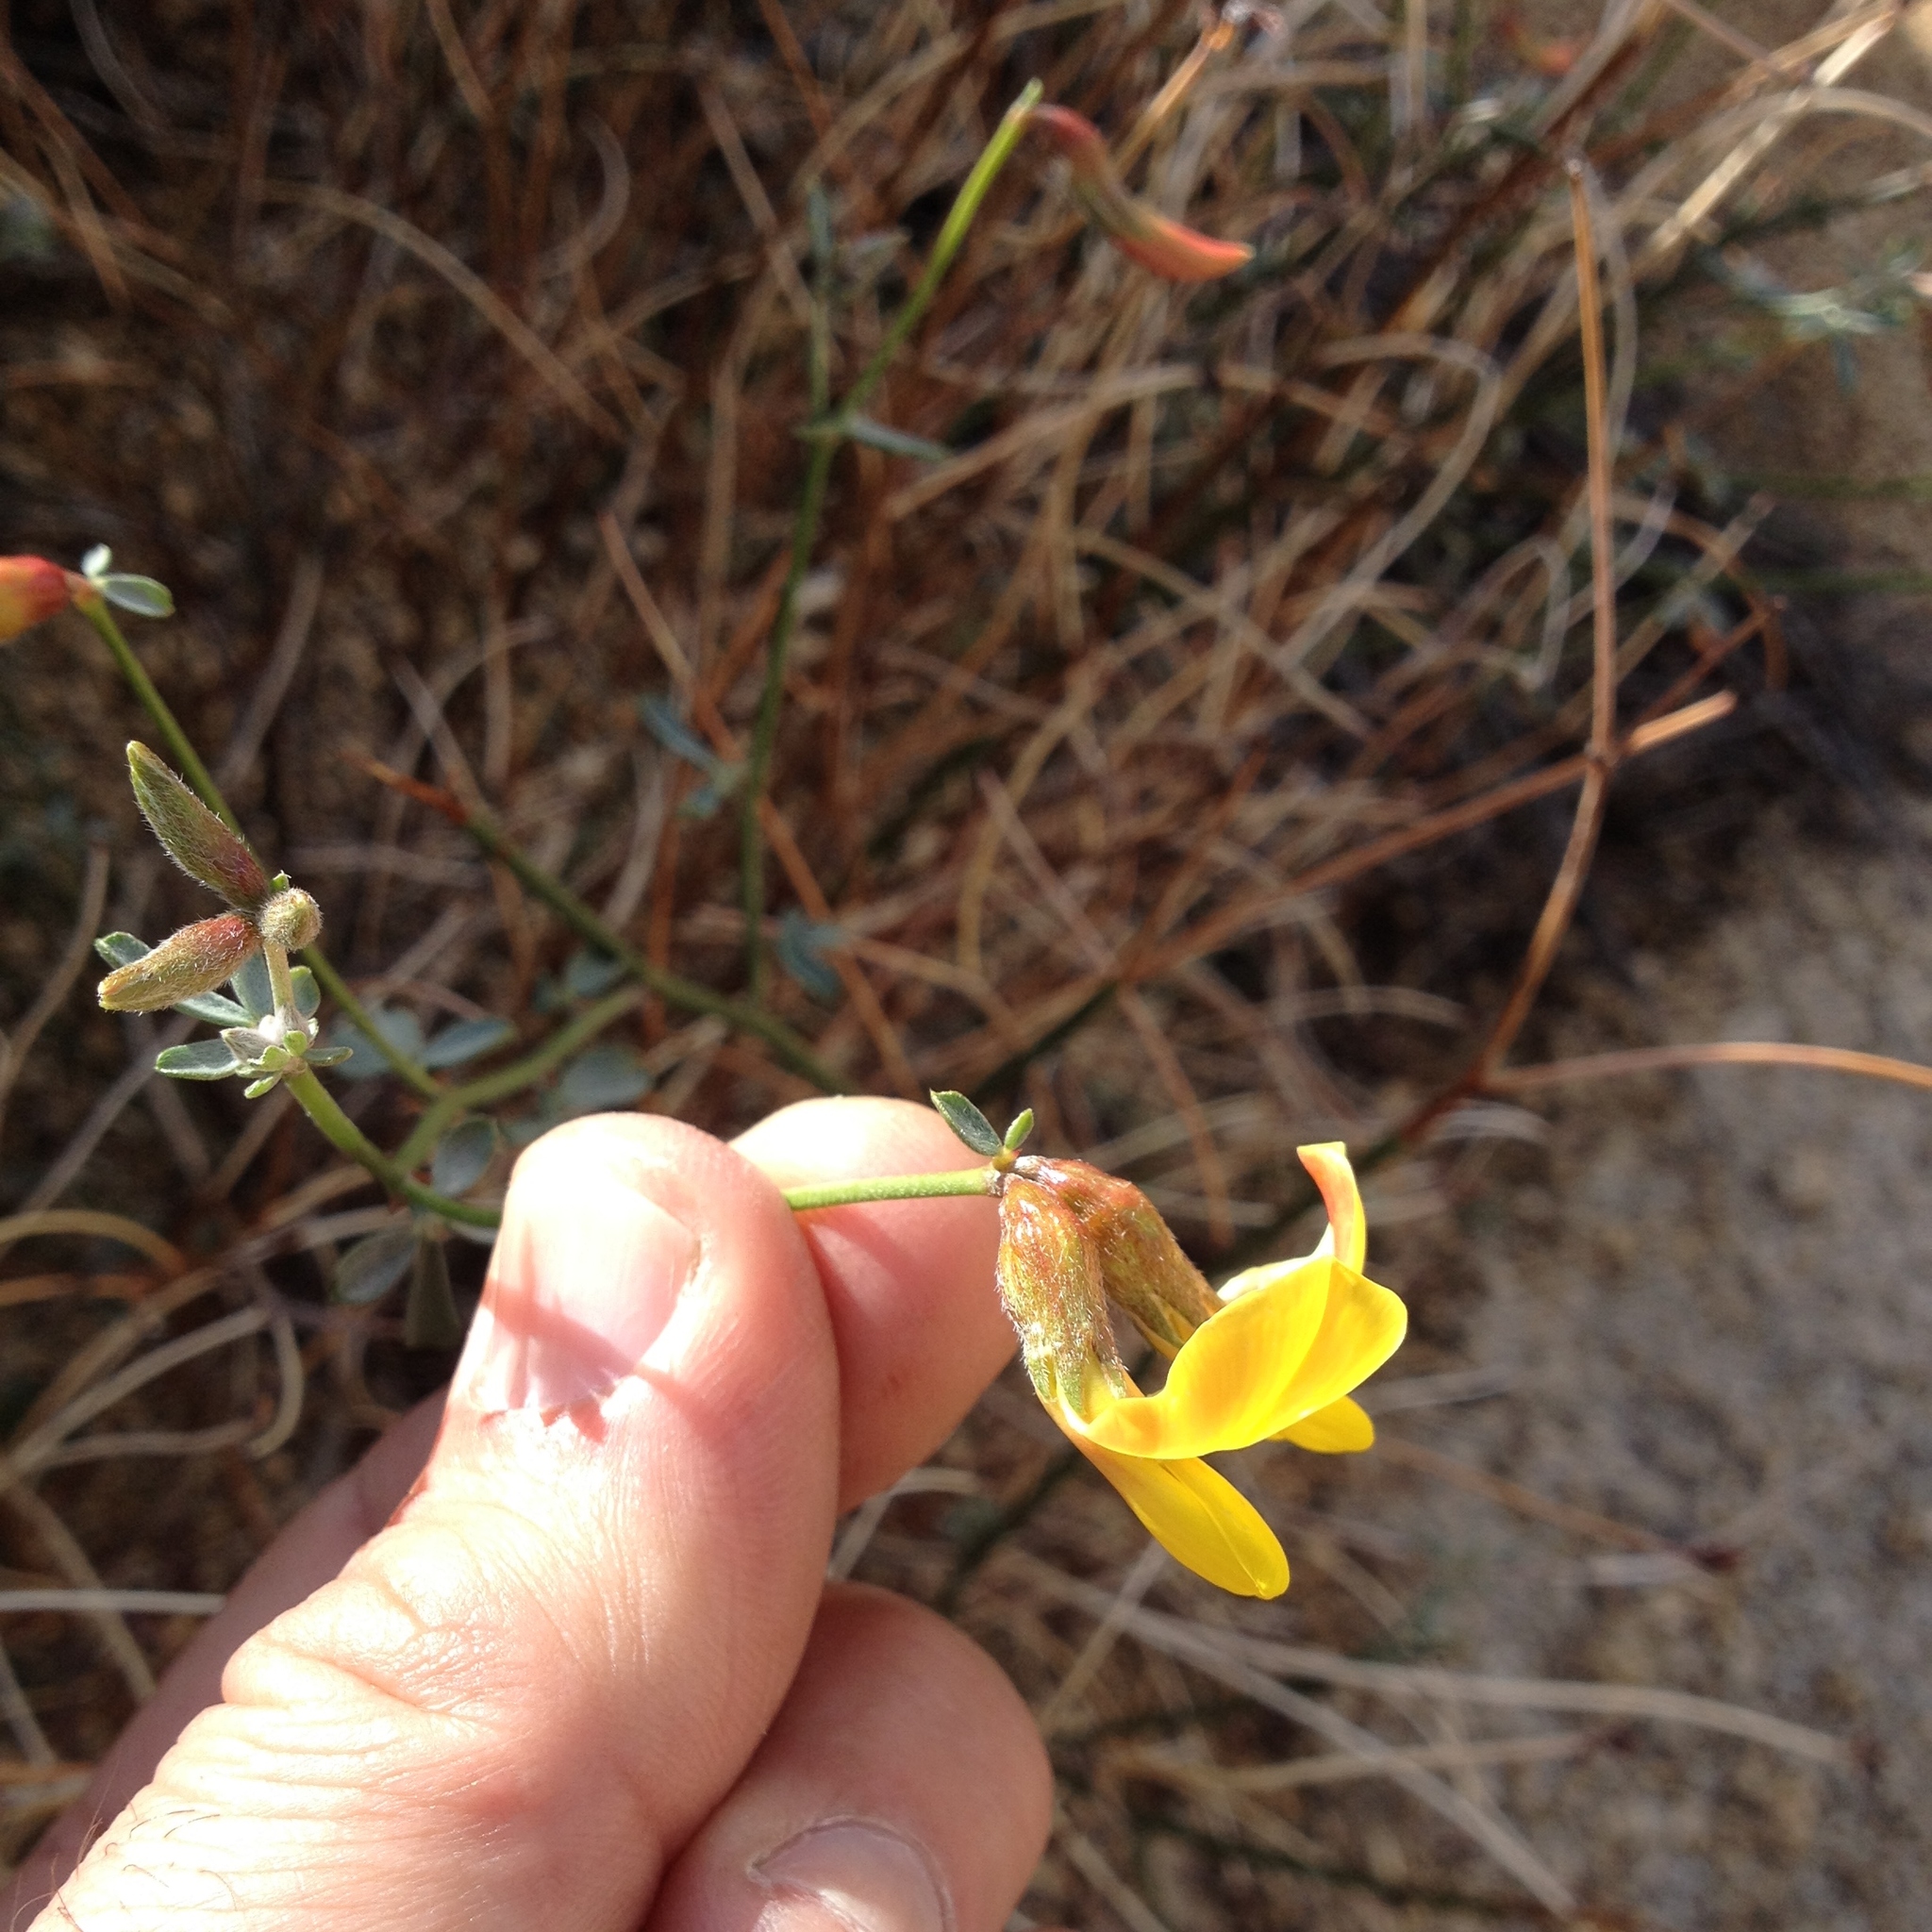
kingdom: Plantae
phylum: Tracheophyta
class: Magnoliopsida
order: Fabales
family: Fabaceae
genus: Acmispon
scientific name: Acmispon rigidus
